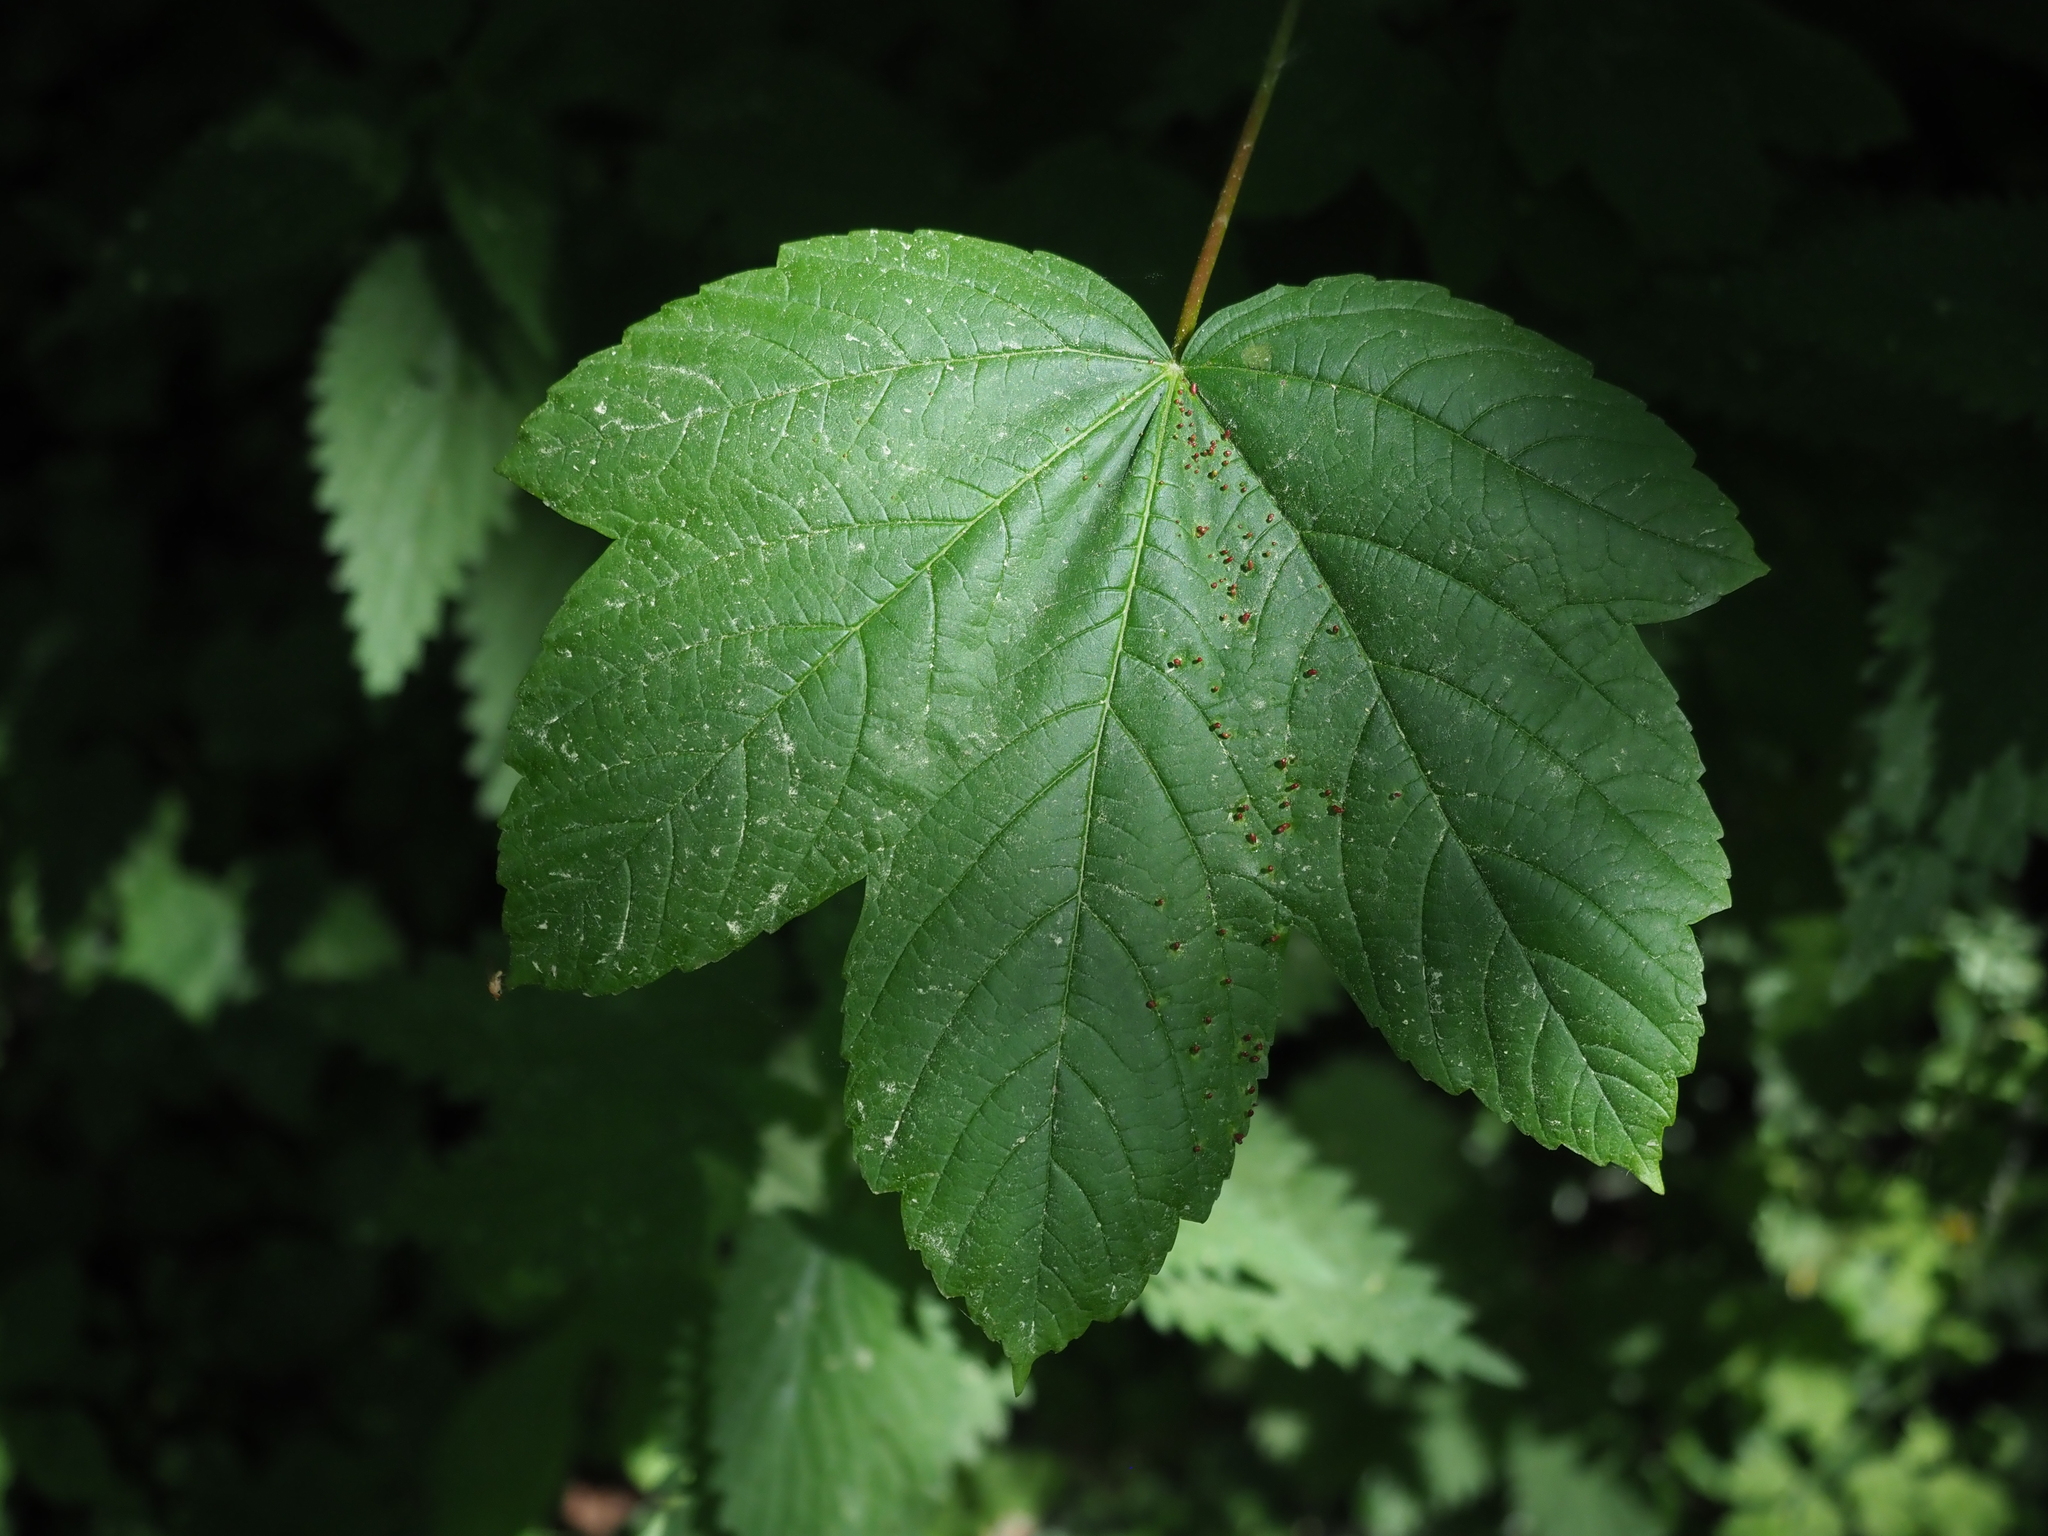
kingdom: Plantae
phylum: Tracheophyta
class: Magnoliopsida
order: Sapindales
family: Sapindaceae
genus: Acer
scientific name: Acer pseudoplatanus
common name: Sycamore
